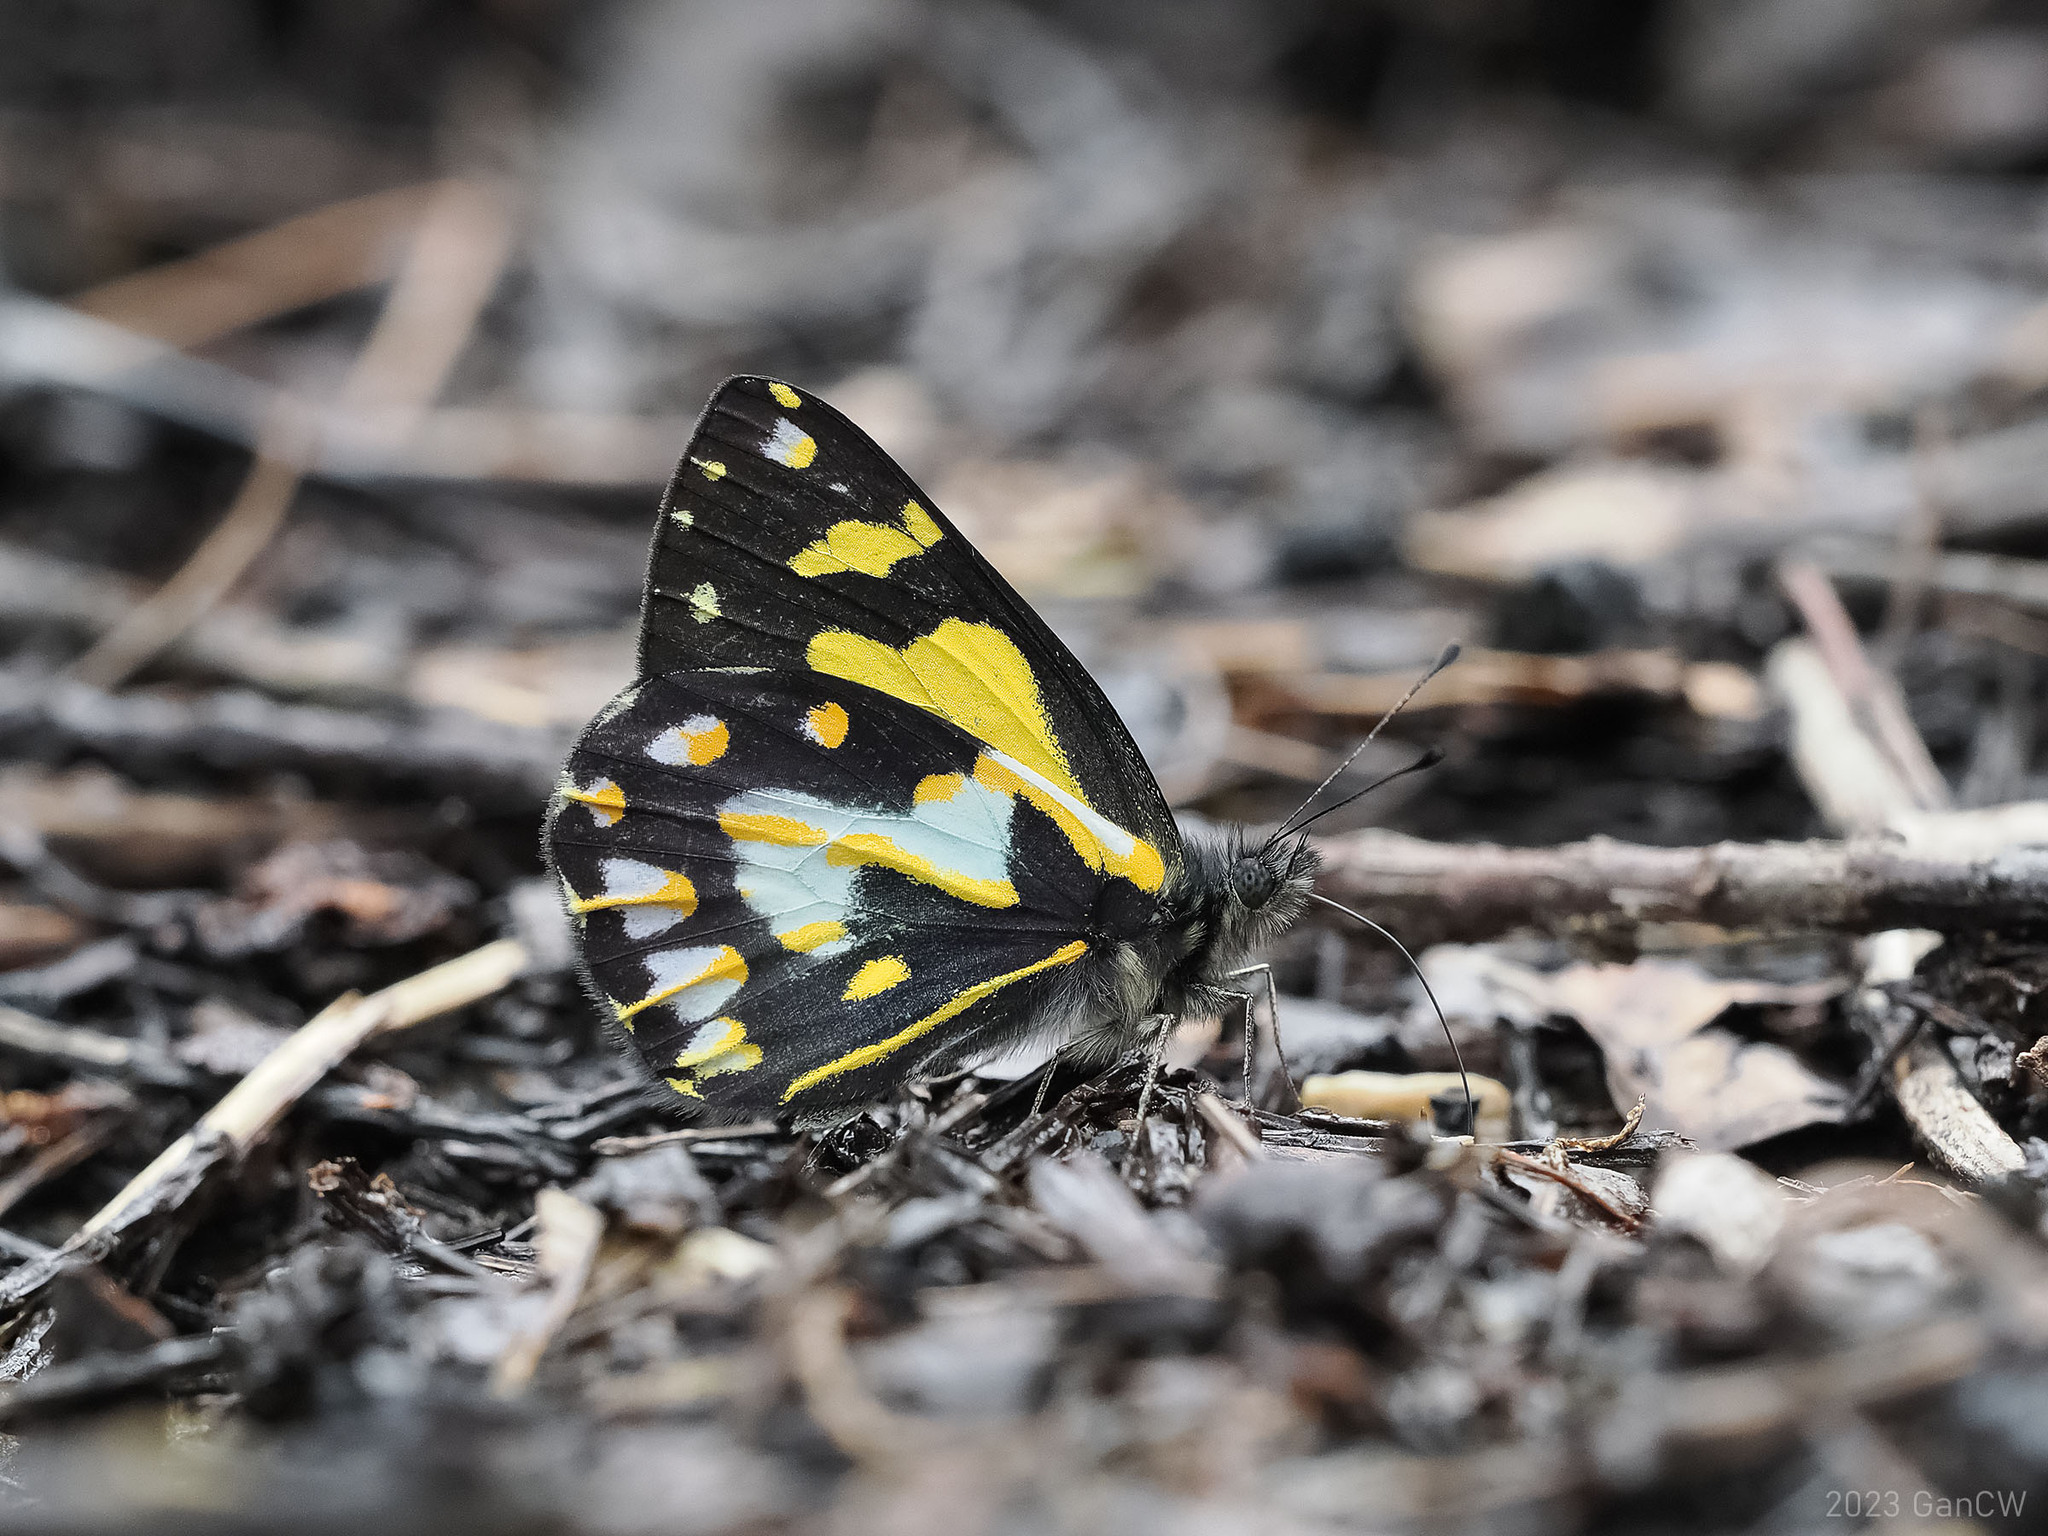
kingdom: Animalia
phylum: Arthropoda
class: Insecta
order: Lepidoptera
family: Pieridae
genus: Delias
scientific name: Delias toxopei
